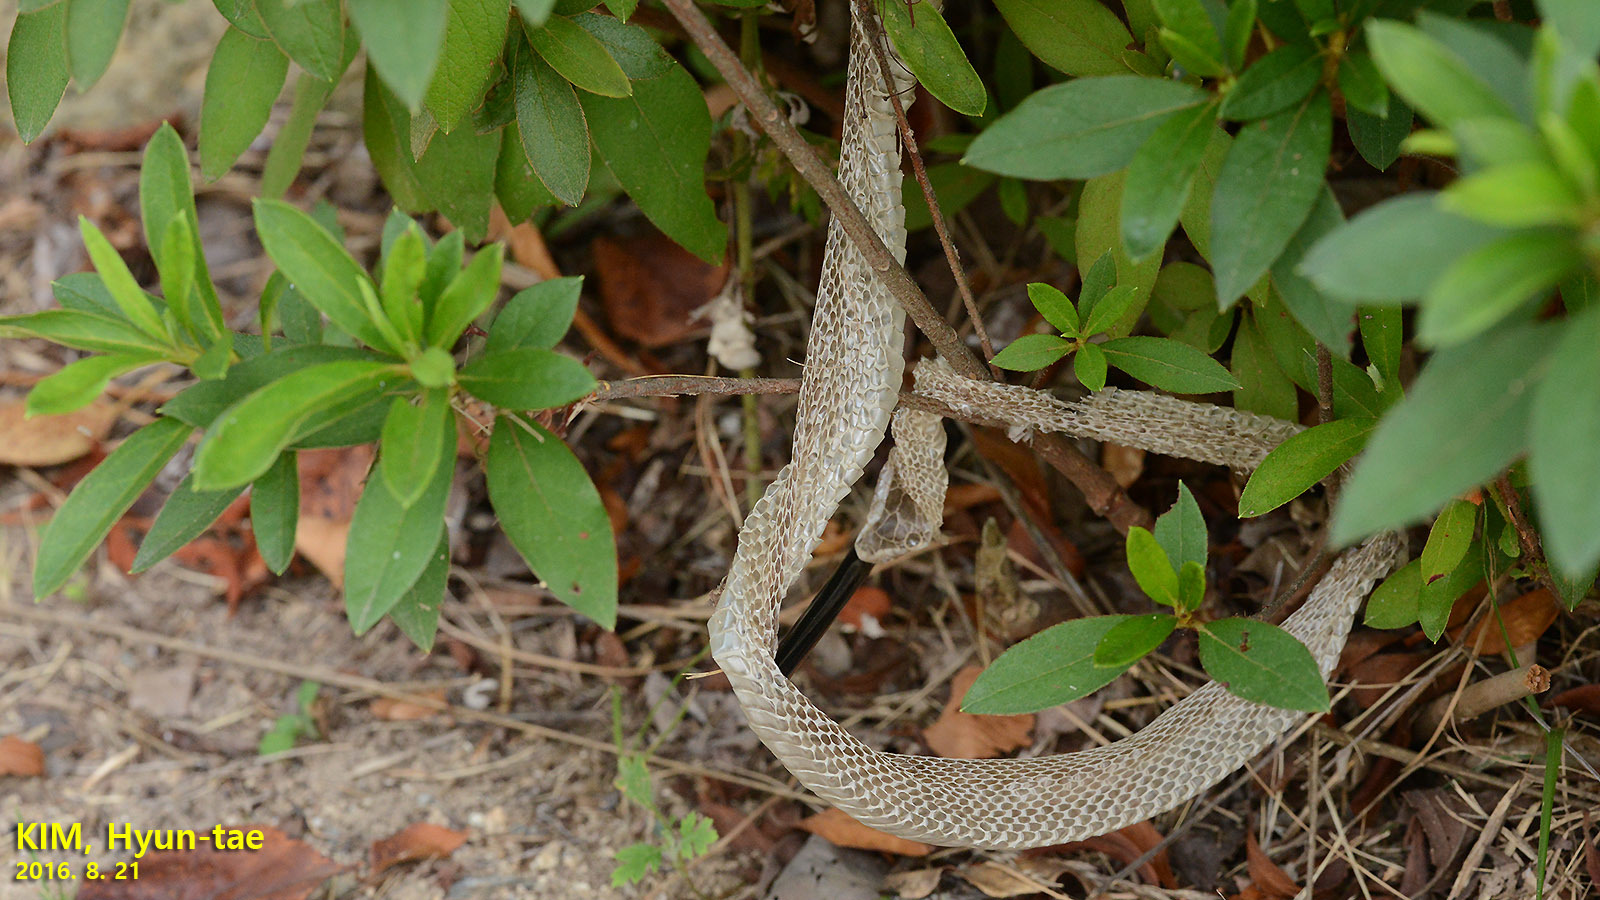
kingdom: Animalia
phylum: Chordata
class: Squamata
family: Colubridae
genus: Elaphe
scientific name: Elaphe dione
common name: Dione ratsnake
